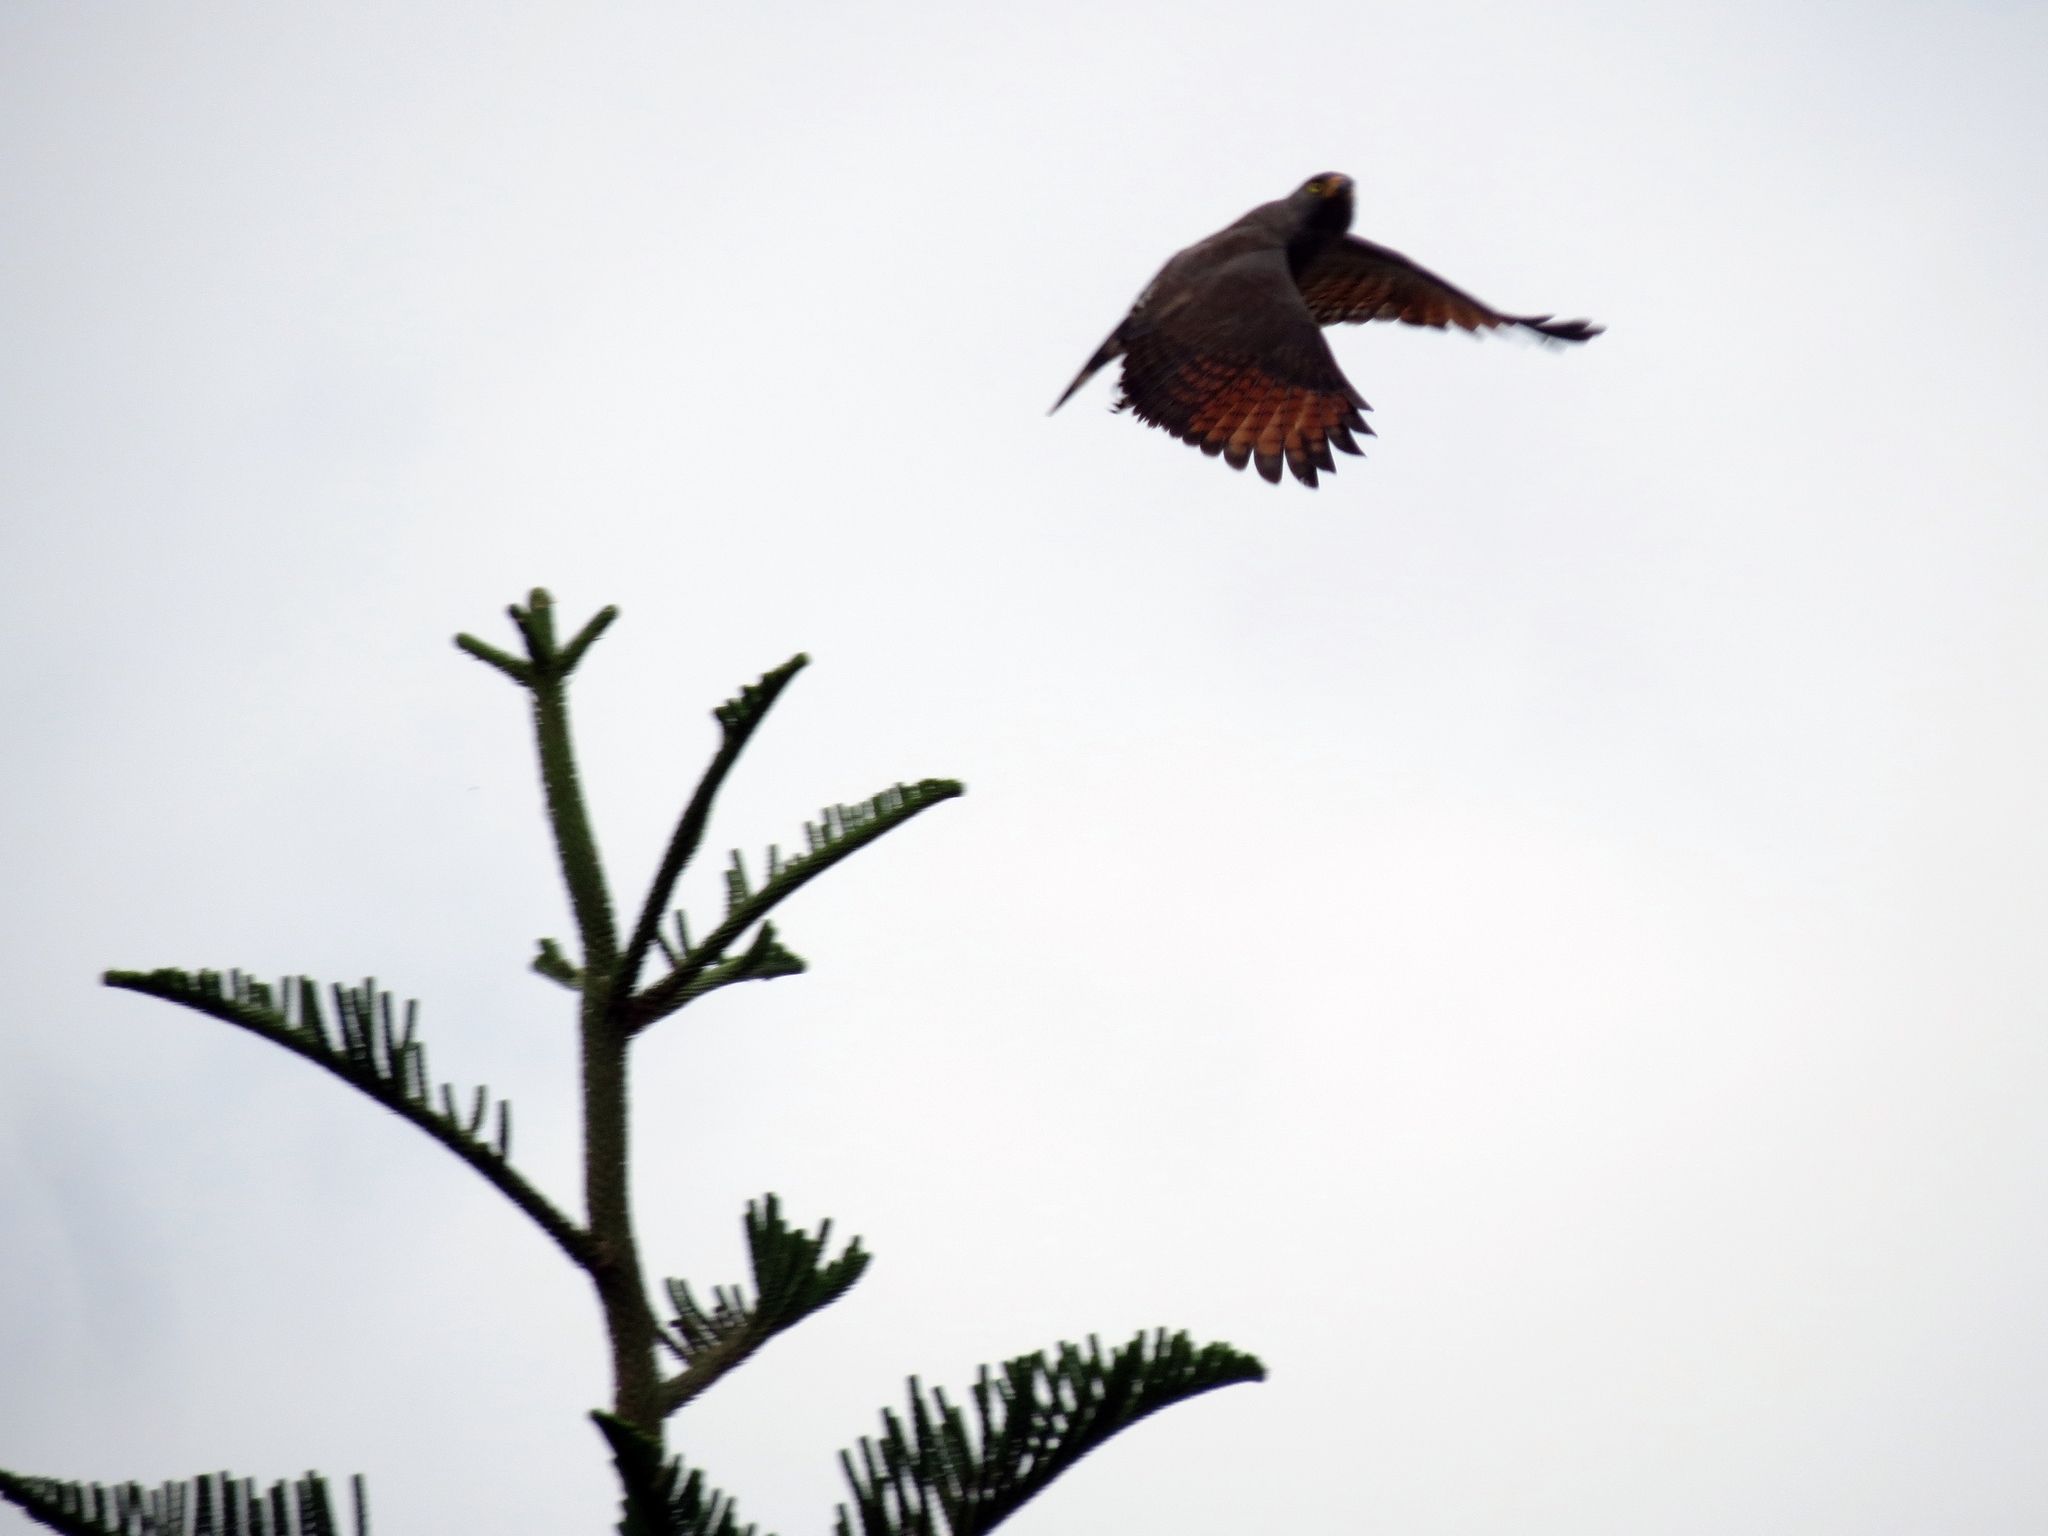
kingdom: Animalia
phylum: Chordata
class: Aves
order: Accipitriformes
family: Accipitridae
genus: Rupornis
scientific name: Rupornis magnirostris
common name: Roadside hawk
